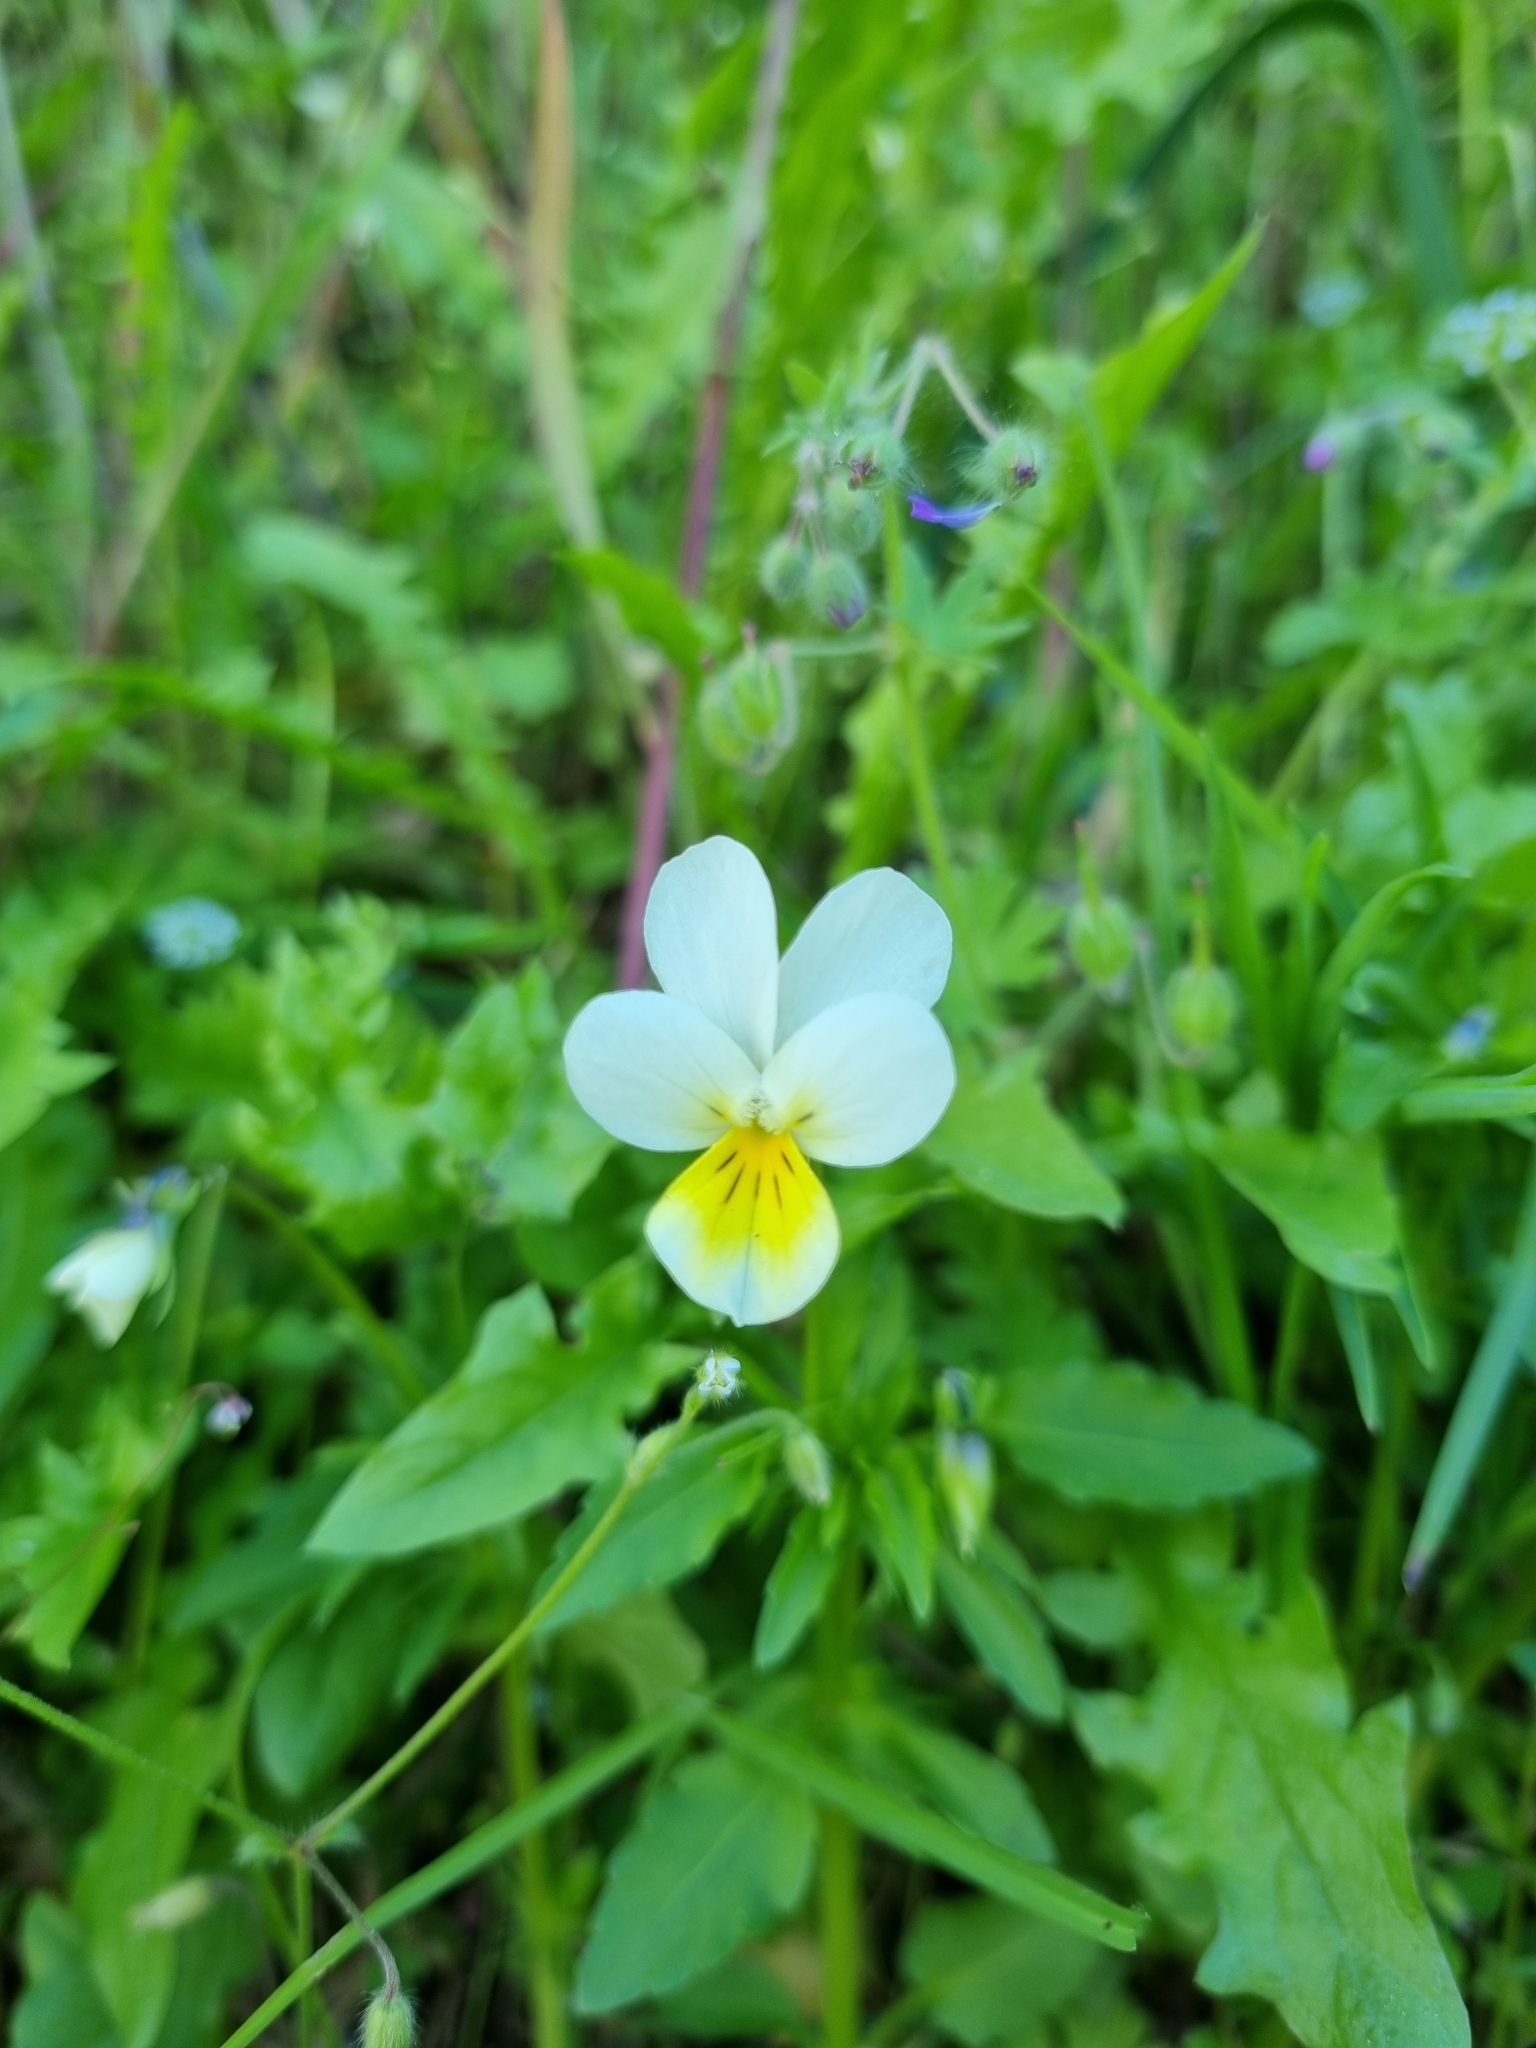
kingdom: Plantae
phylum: Tracheophyta
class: Magnoliopsida
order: Malpighiales
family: Violaceae
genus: Viola
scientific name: Viola arvensis
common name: Field pansy
